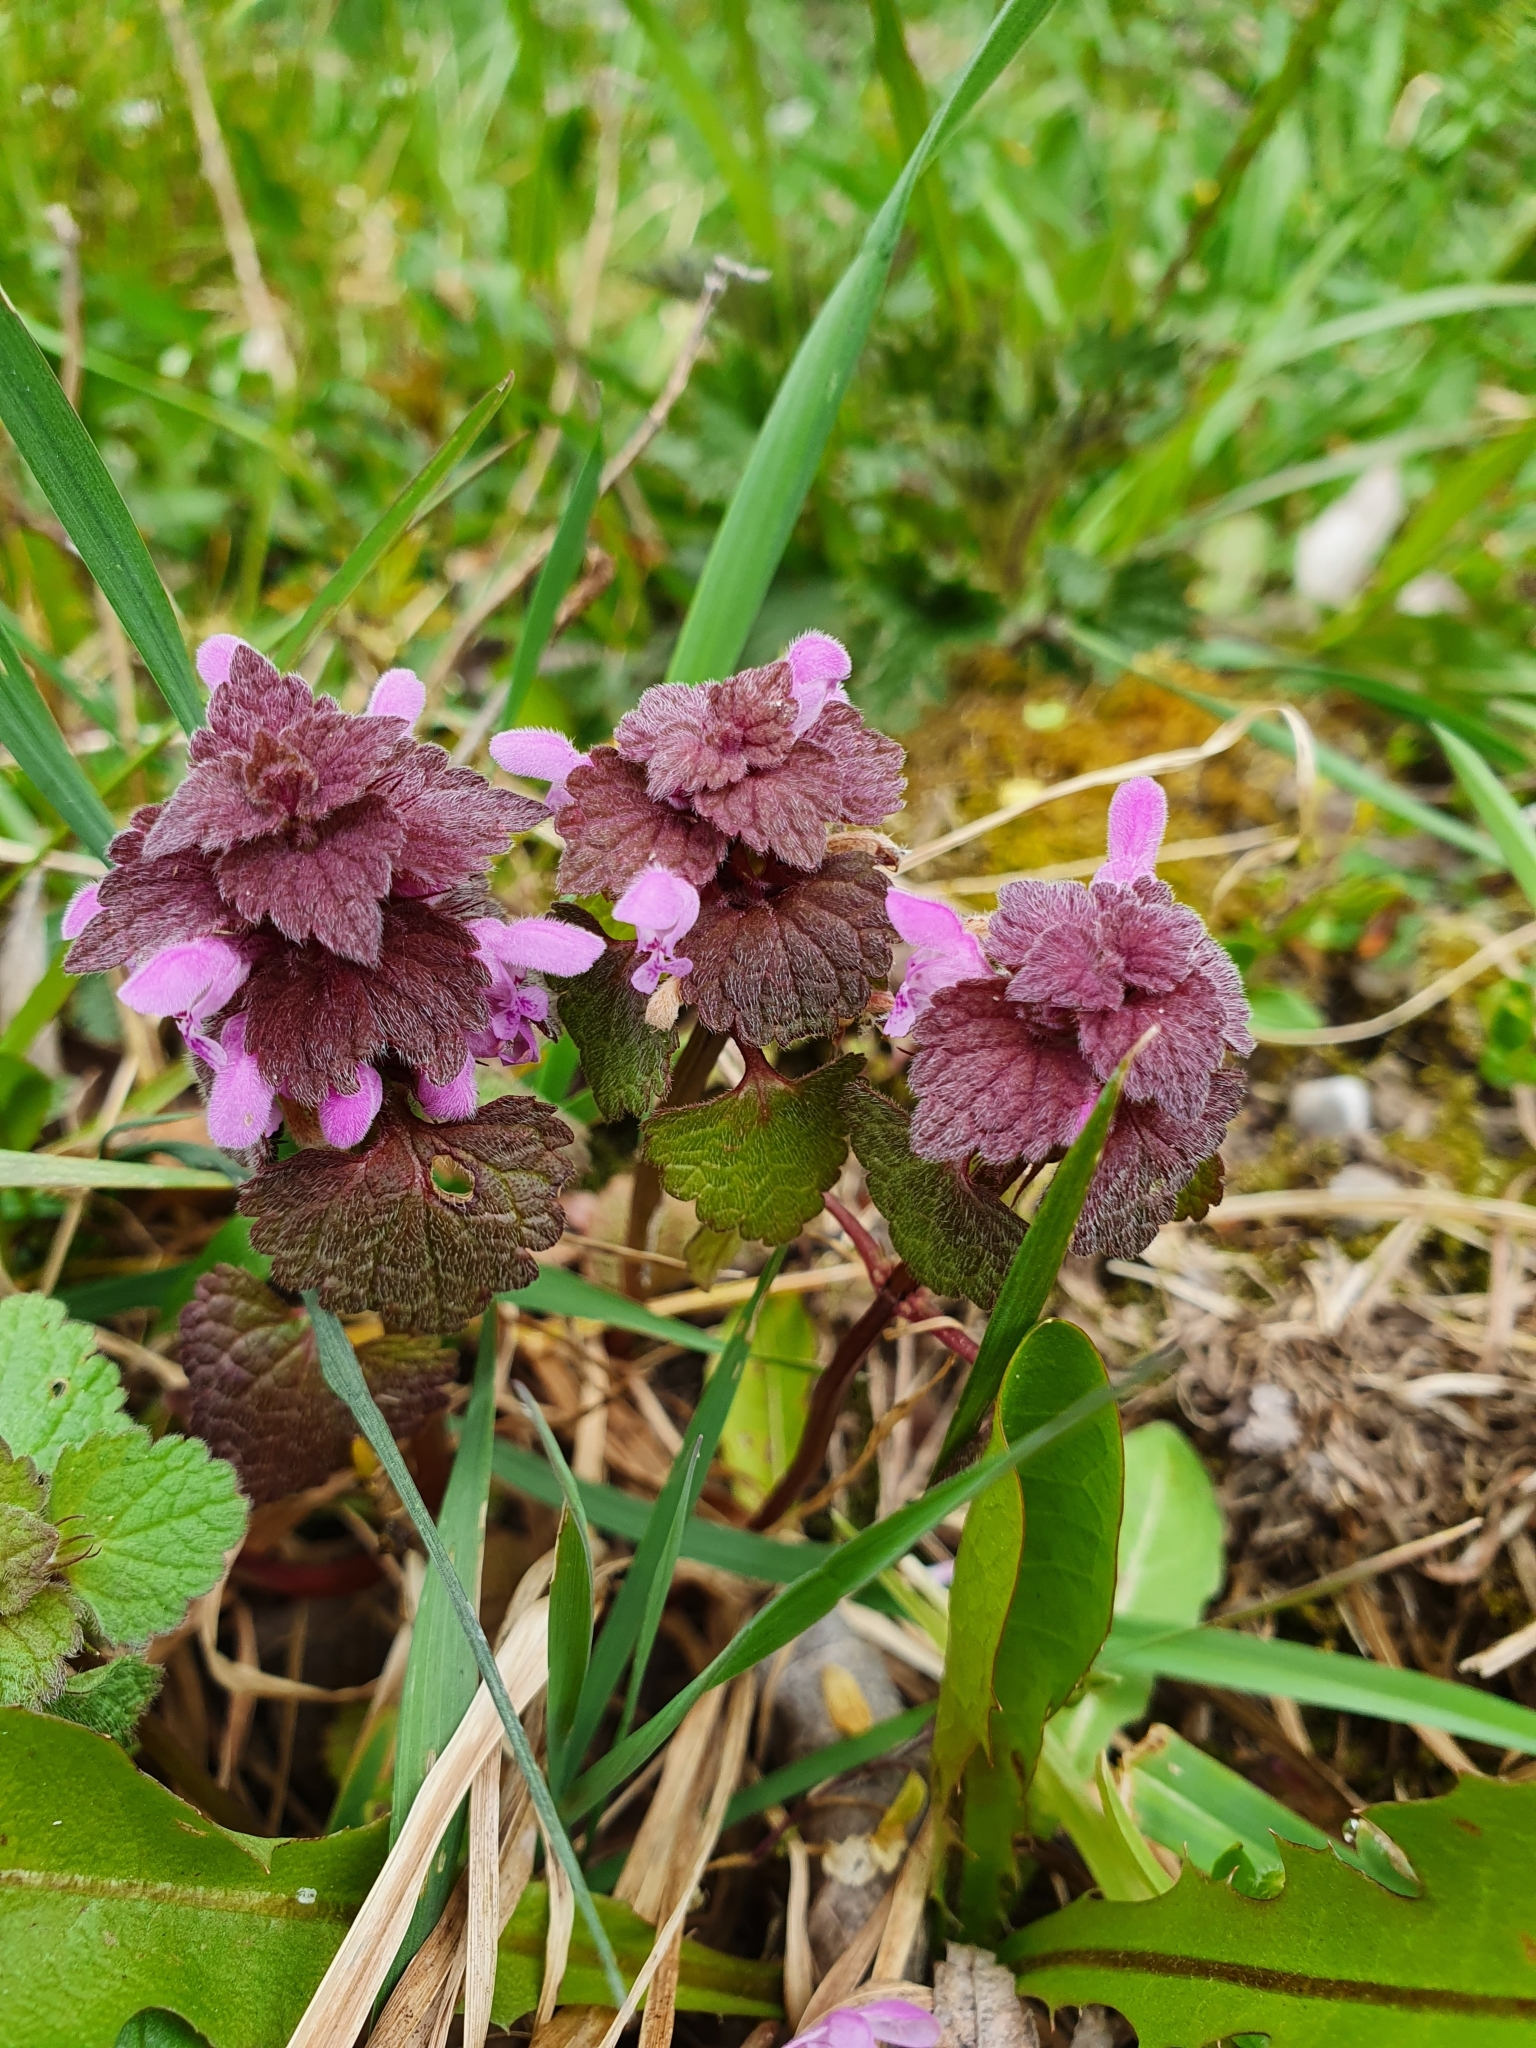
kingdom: Plantae
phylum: Tracheophyta
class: Magnoliopsida
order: Lamiales
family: Lamiaceae
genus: Lamium
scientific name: Lamium purpureum
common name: Red dead-nettle
